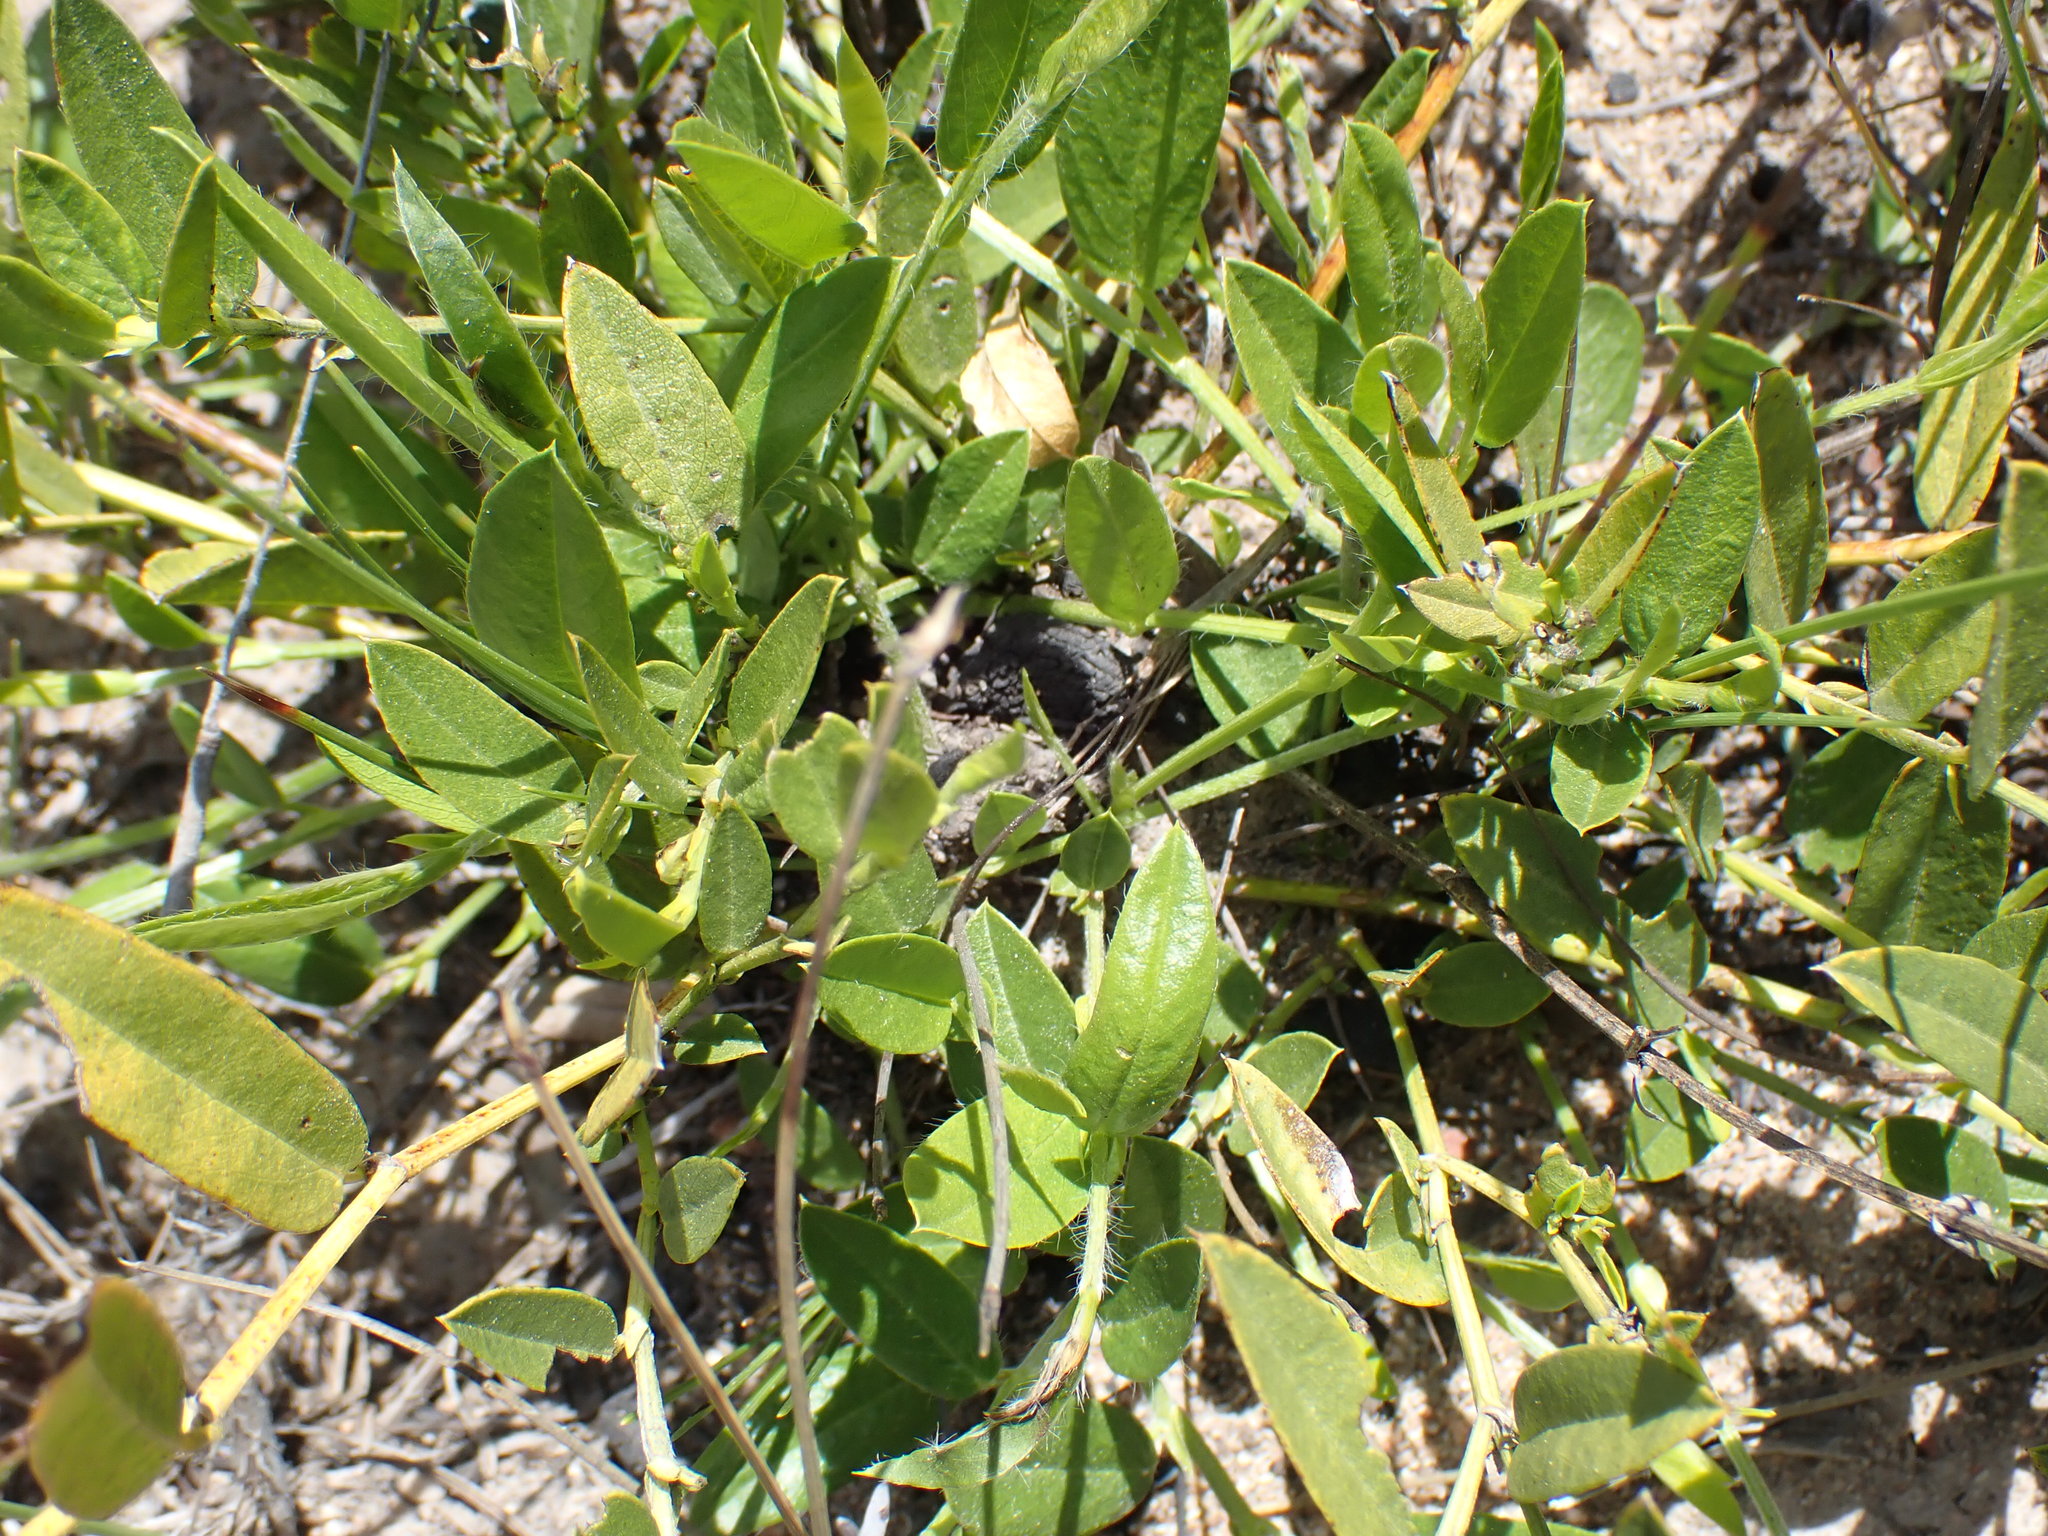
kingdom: Plantae
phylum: Tracheophyta
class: Magnoliopsida
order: Fabales
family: Fabaceae
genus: Psoralea
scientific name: Psoralea plauta
